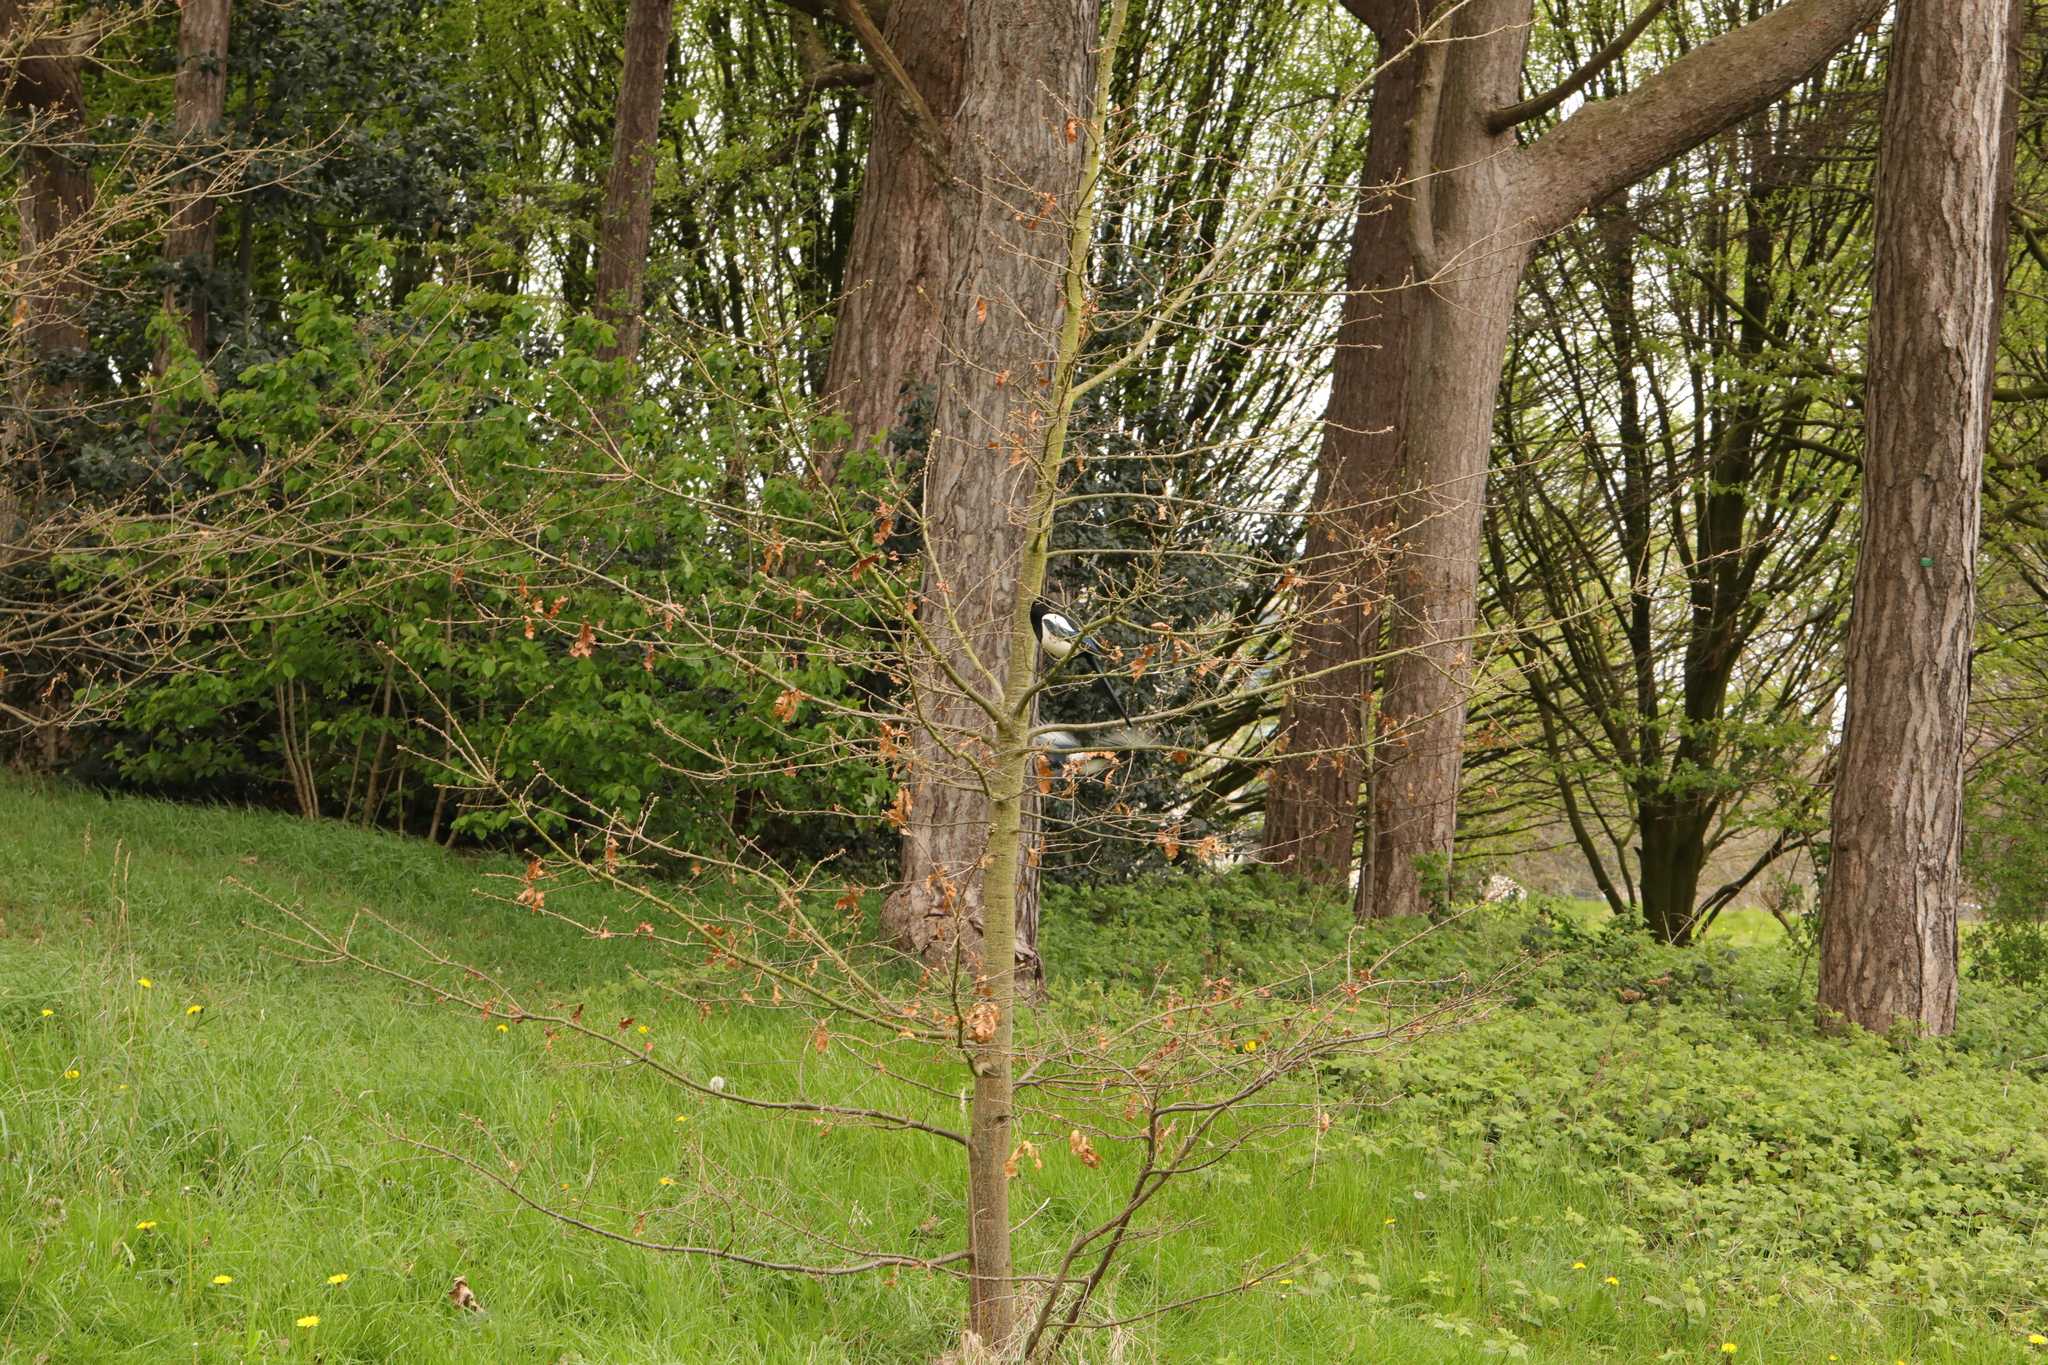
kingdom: Animalia
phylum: Chordata
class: Aves
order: Passeriformes
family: Corvidae
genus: Pica
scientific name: Pica pica
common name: Eurasian magpie
